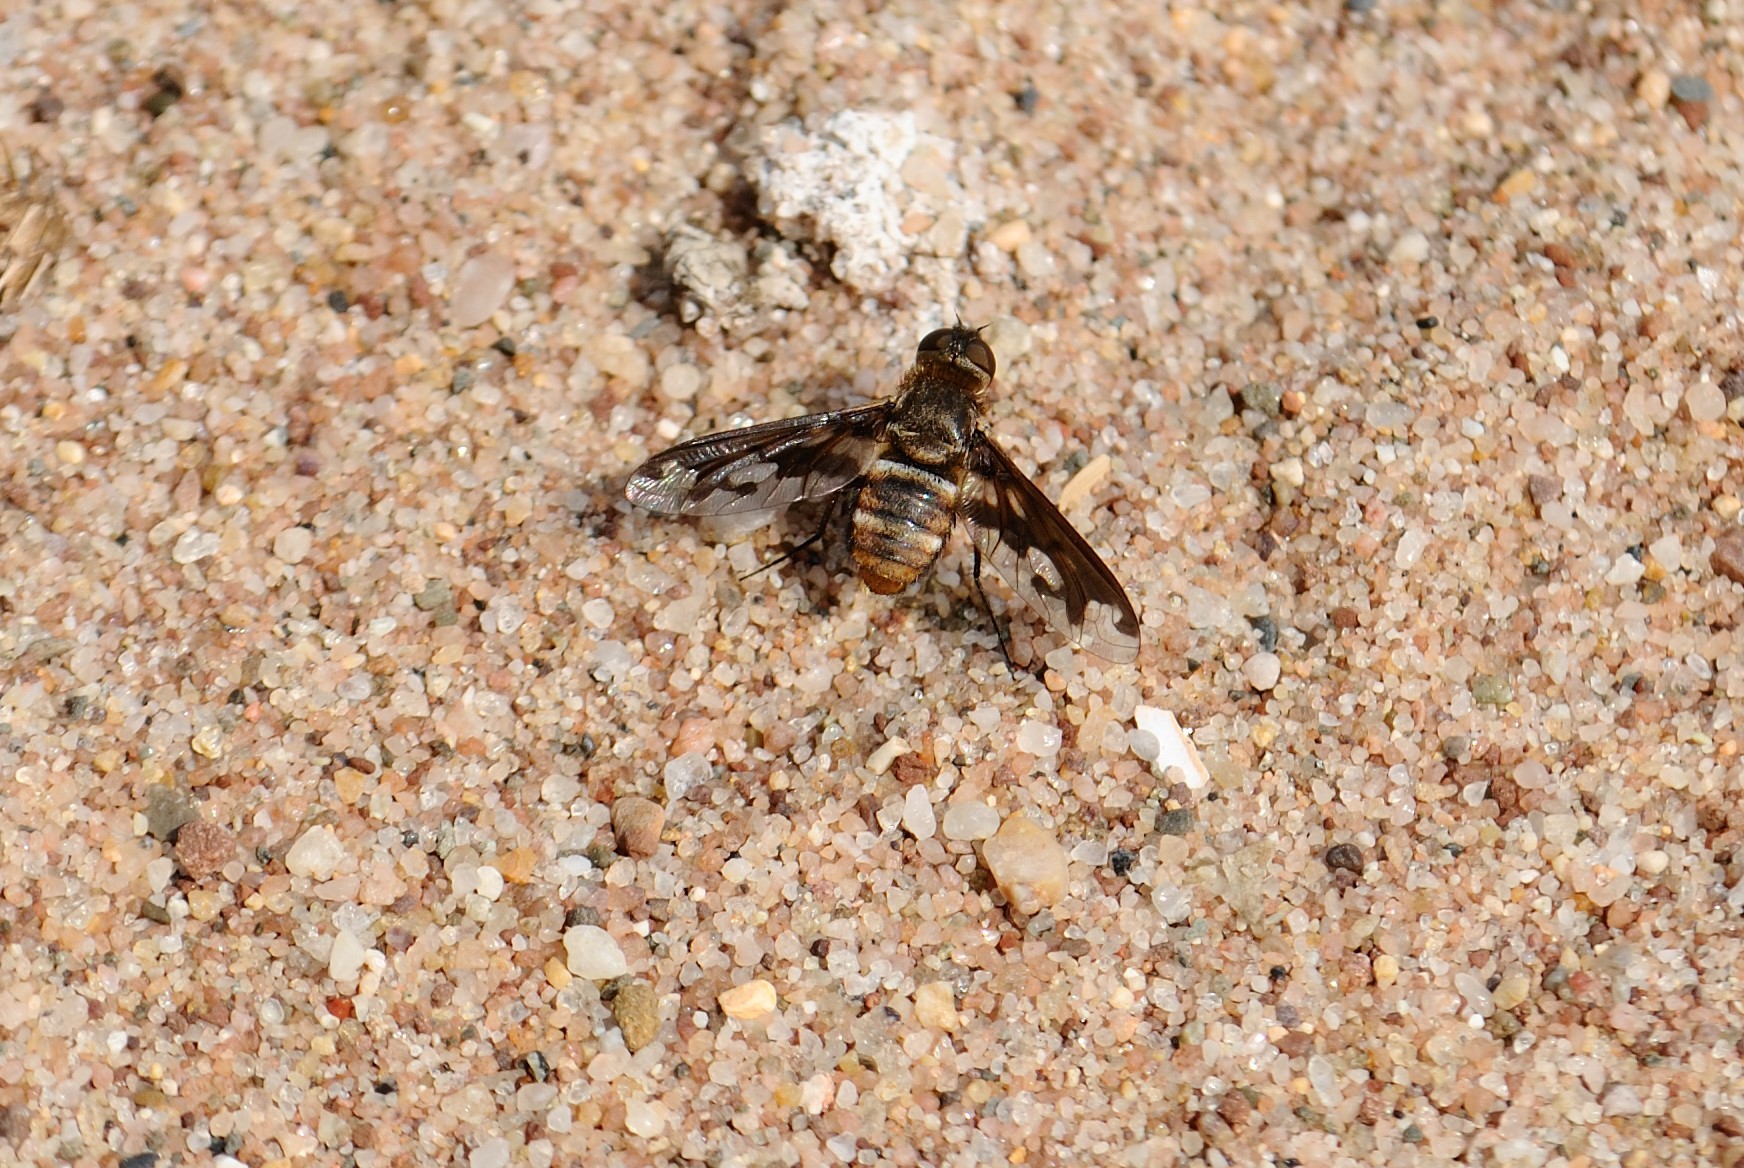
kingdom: Animalia
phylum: Arthropoda
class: Insecta
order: Diptera
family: Bombyliidae
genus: Exoprosopa
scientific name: Exoprosopa fascipennis
